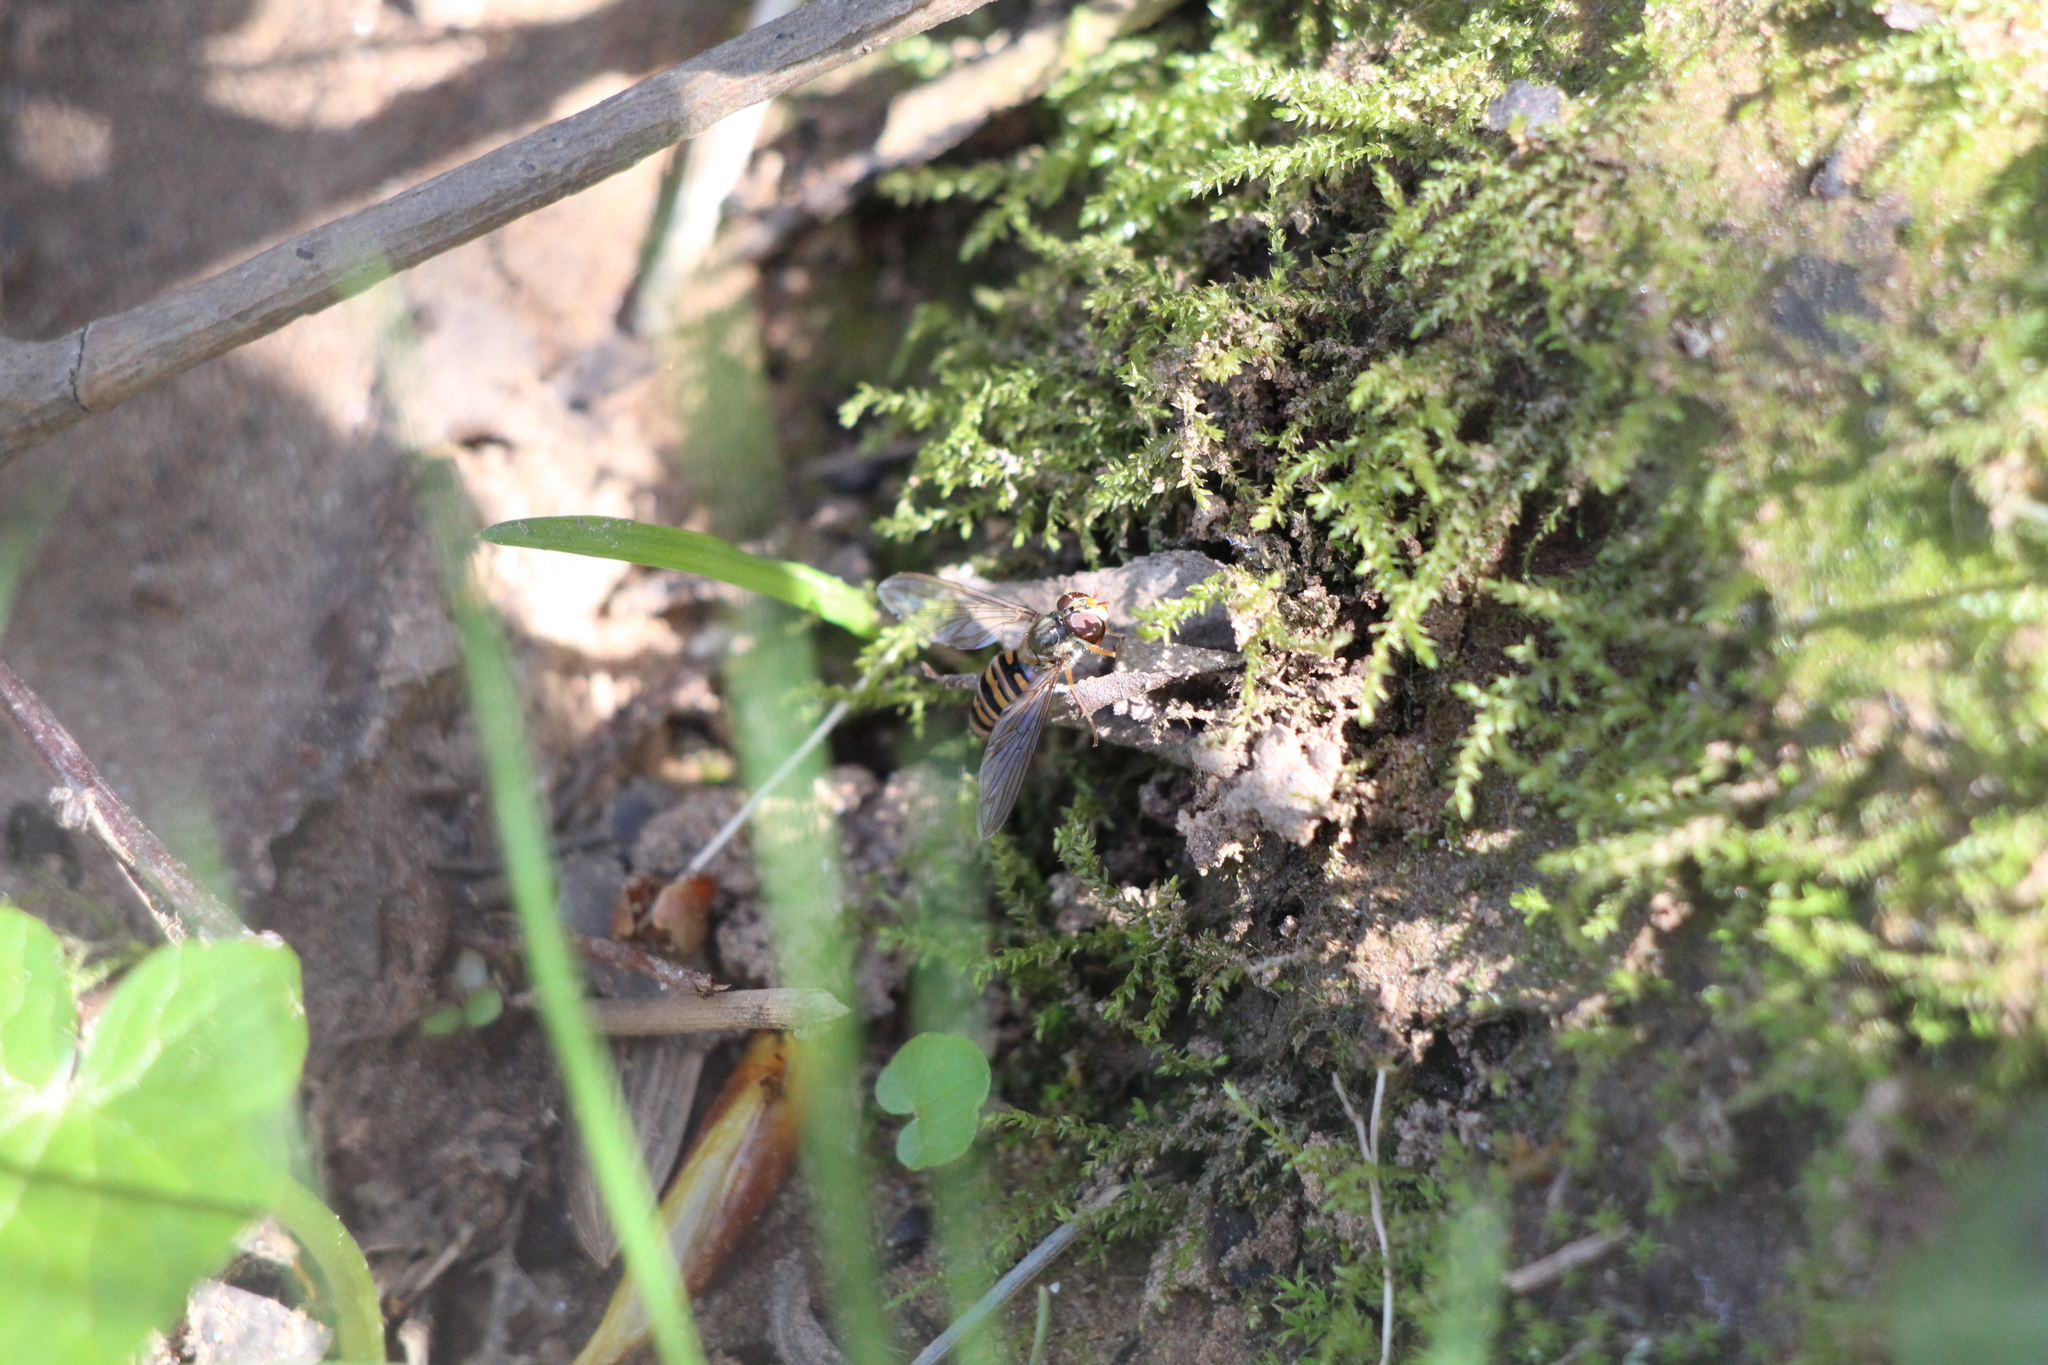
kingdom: Animalia
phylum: Arthropoda
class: Insecta
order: Diptera
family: Syrphidae
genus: Episyrphus
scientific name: Episyrphus balteatus
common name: Marmalade hoverfly
